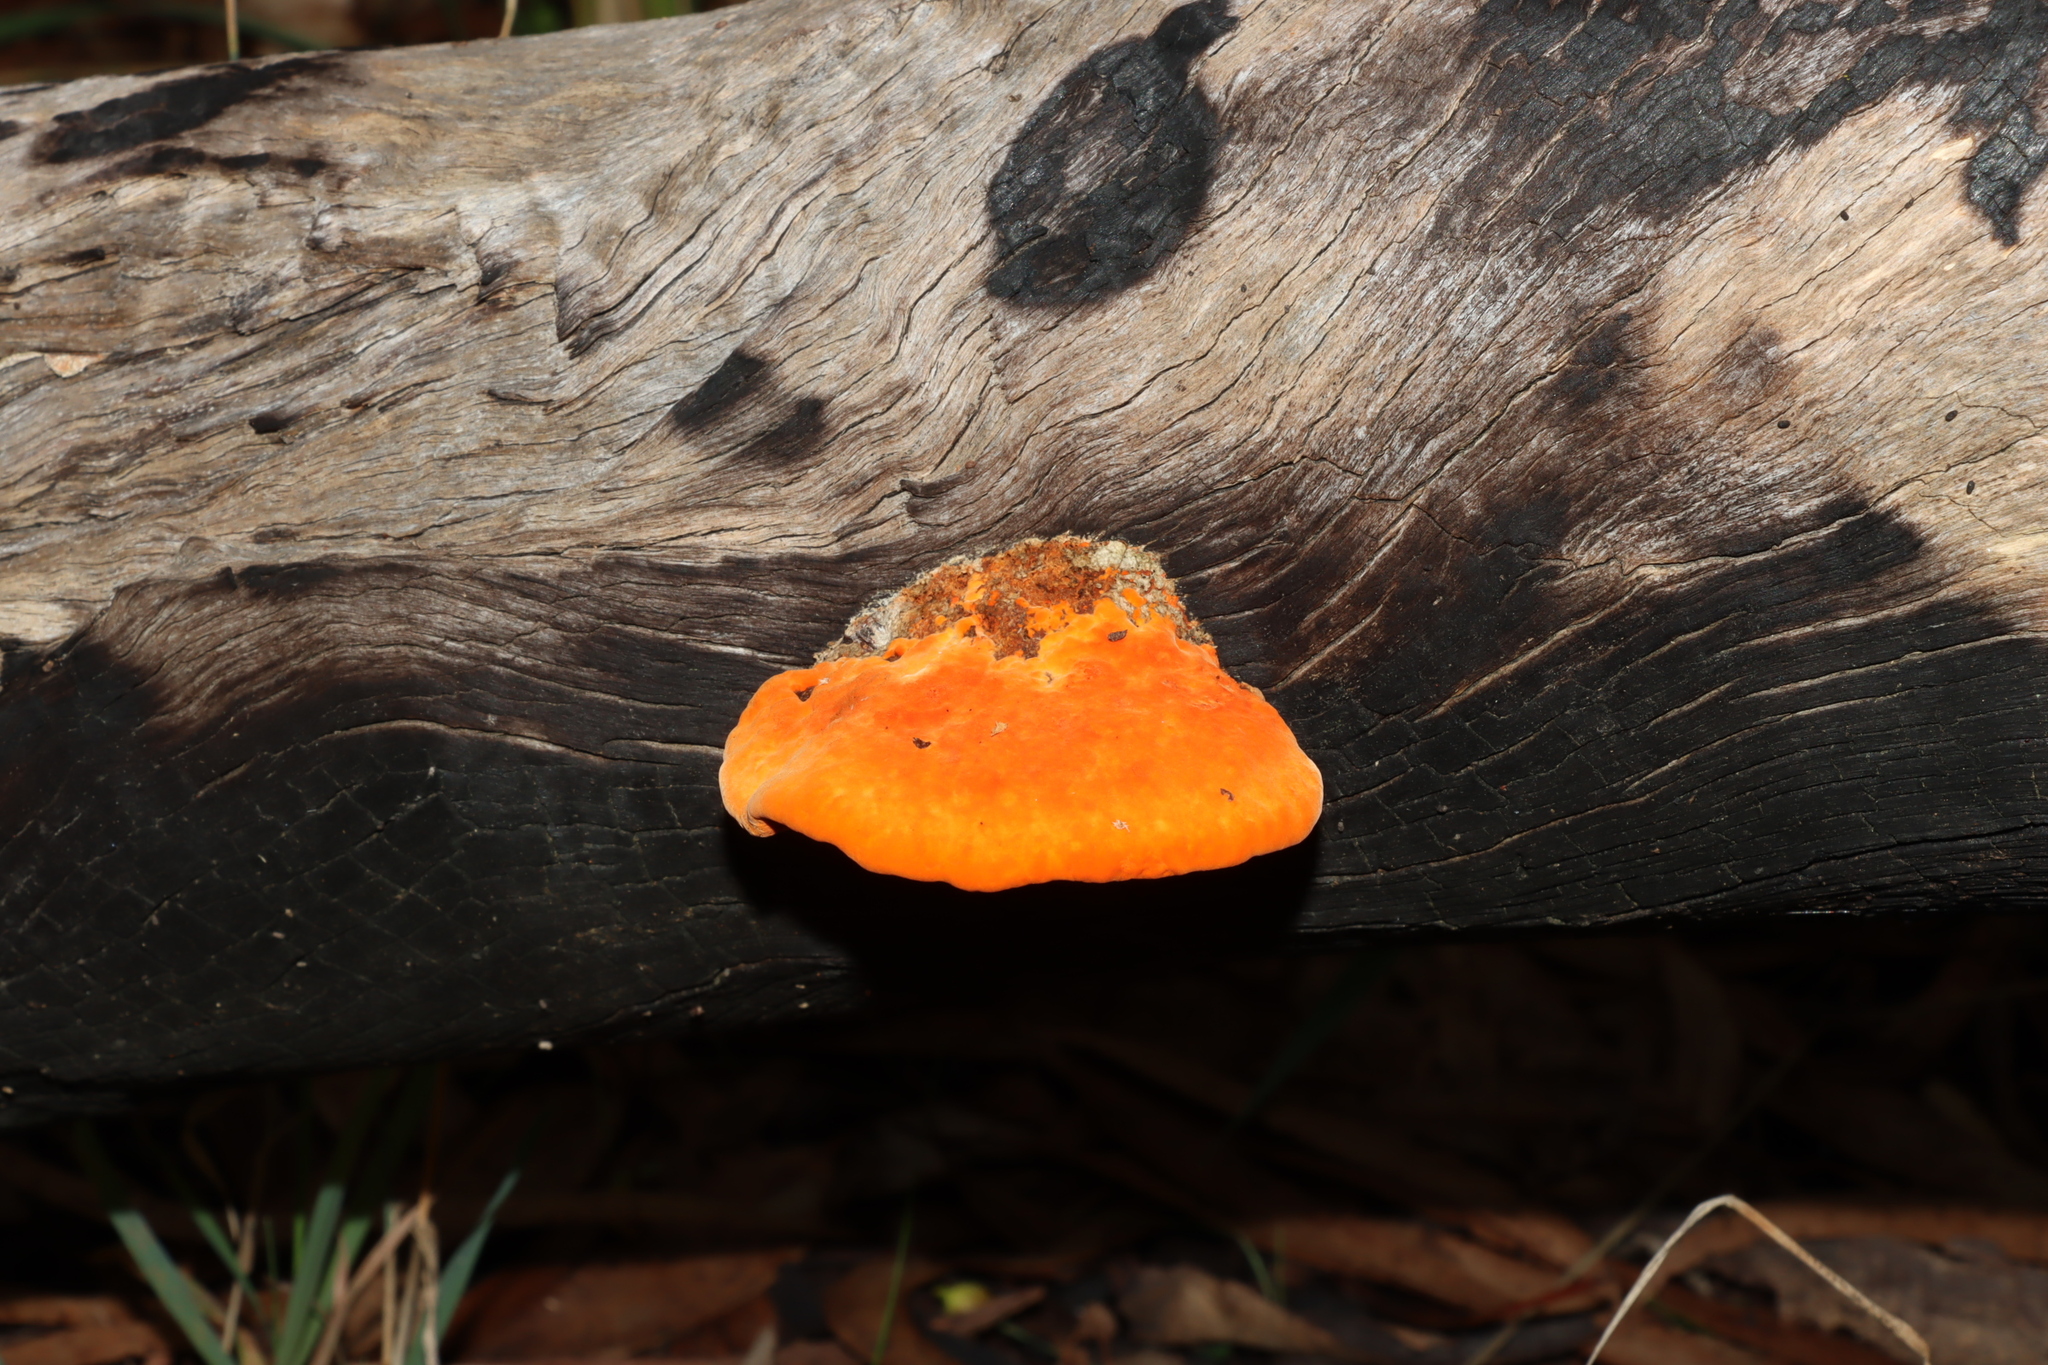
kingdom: Fungi
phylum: Basidiomycota
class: Agaricomycetes
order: Polyporales
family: Polyporaceae
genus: Trametes
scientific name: Trametes coccinea
